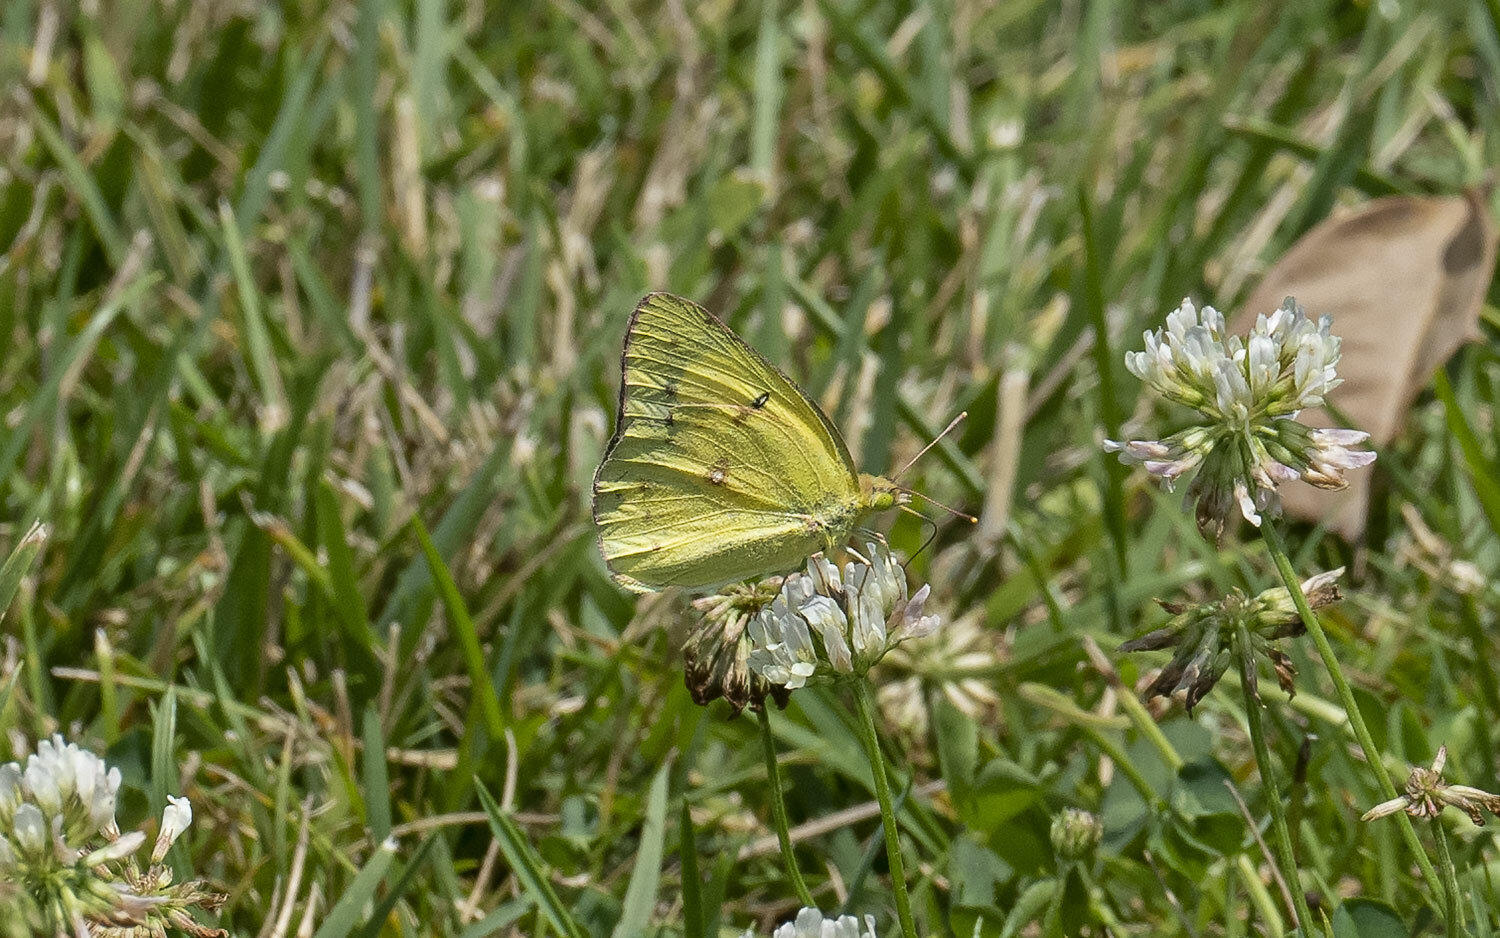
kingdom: Animalia
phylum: Arthropoda
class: Insecta
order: Lepidoptera
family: Pieridae
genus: Colias
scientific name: Colias philodice
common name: Clouded sulphur
